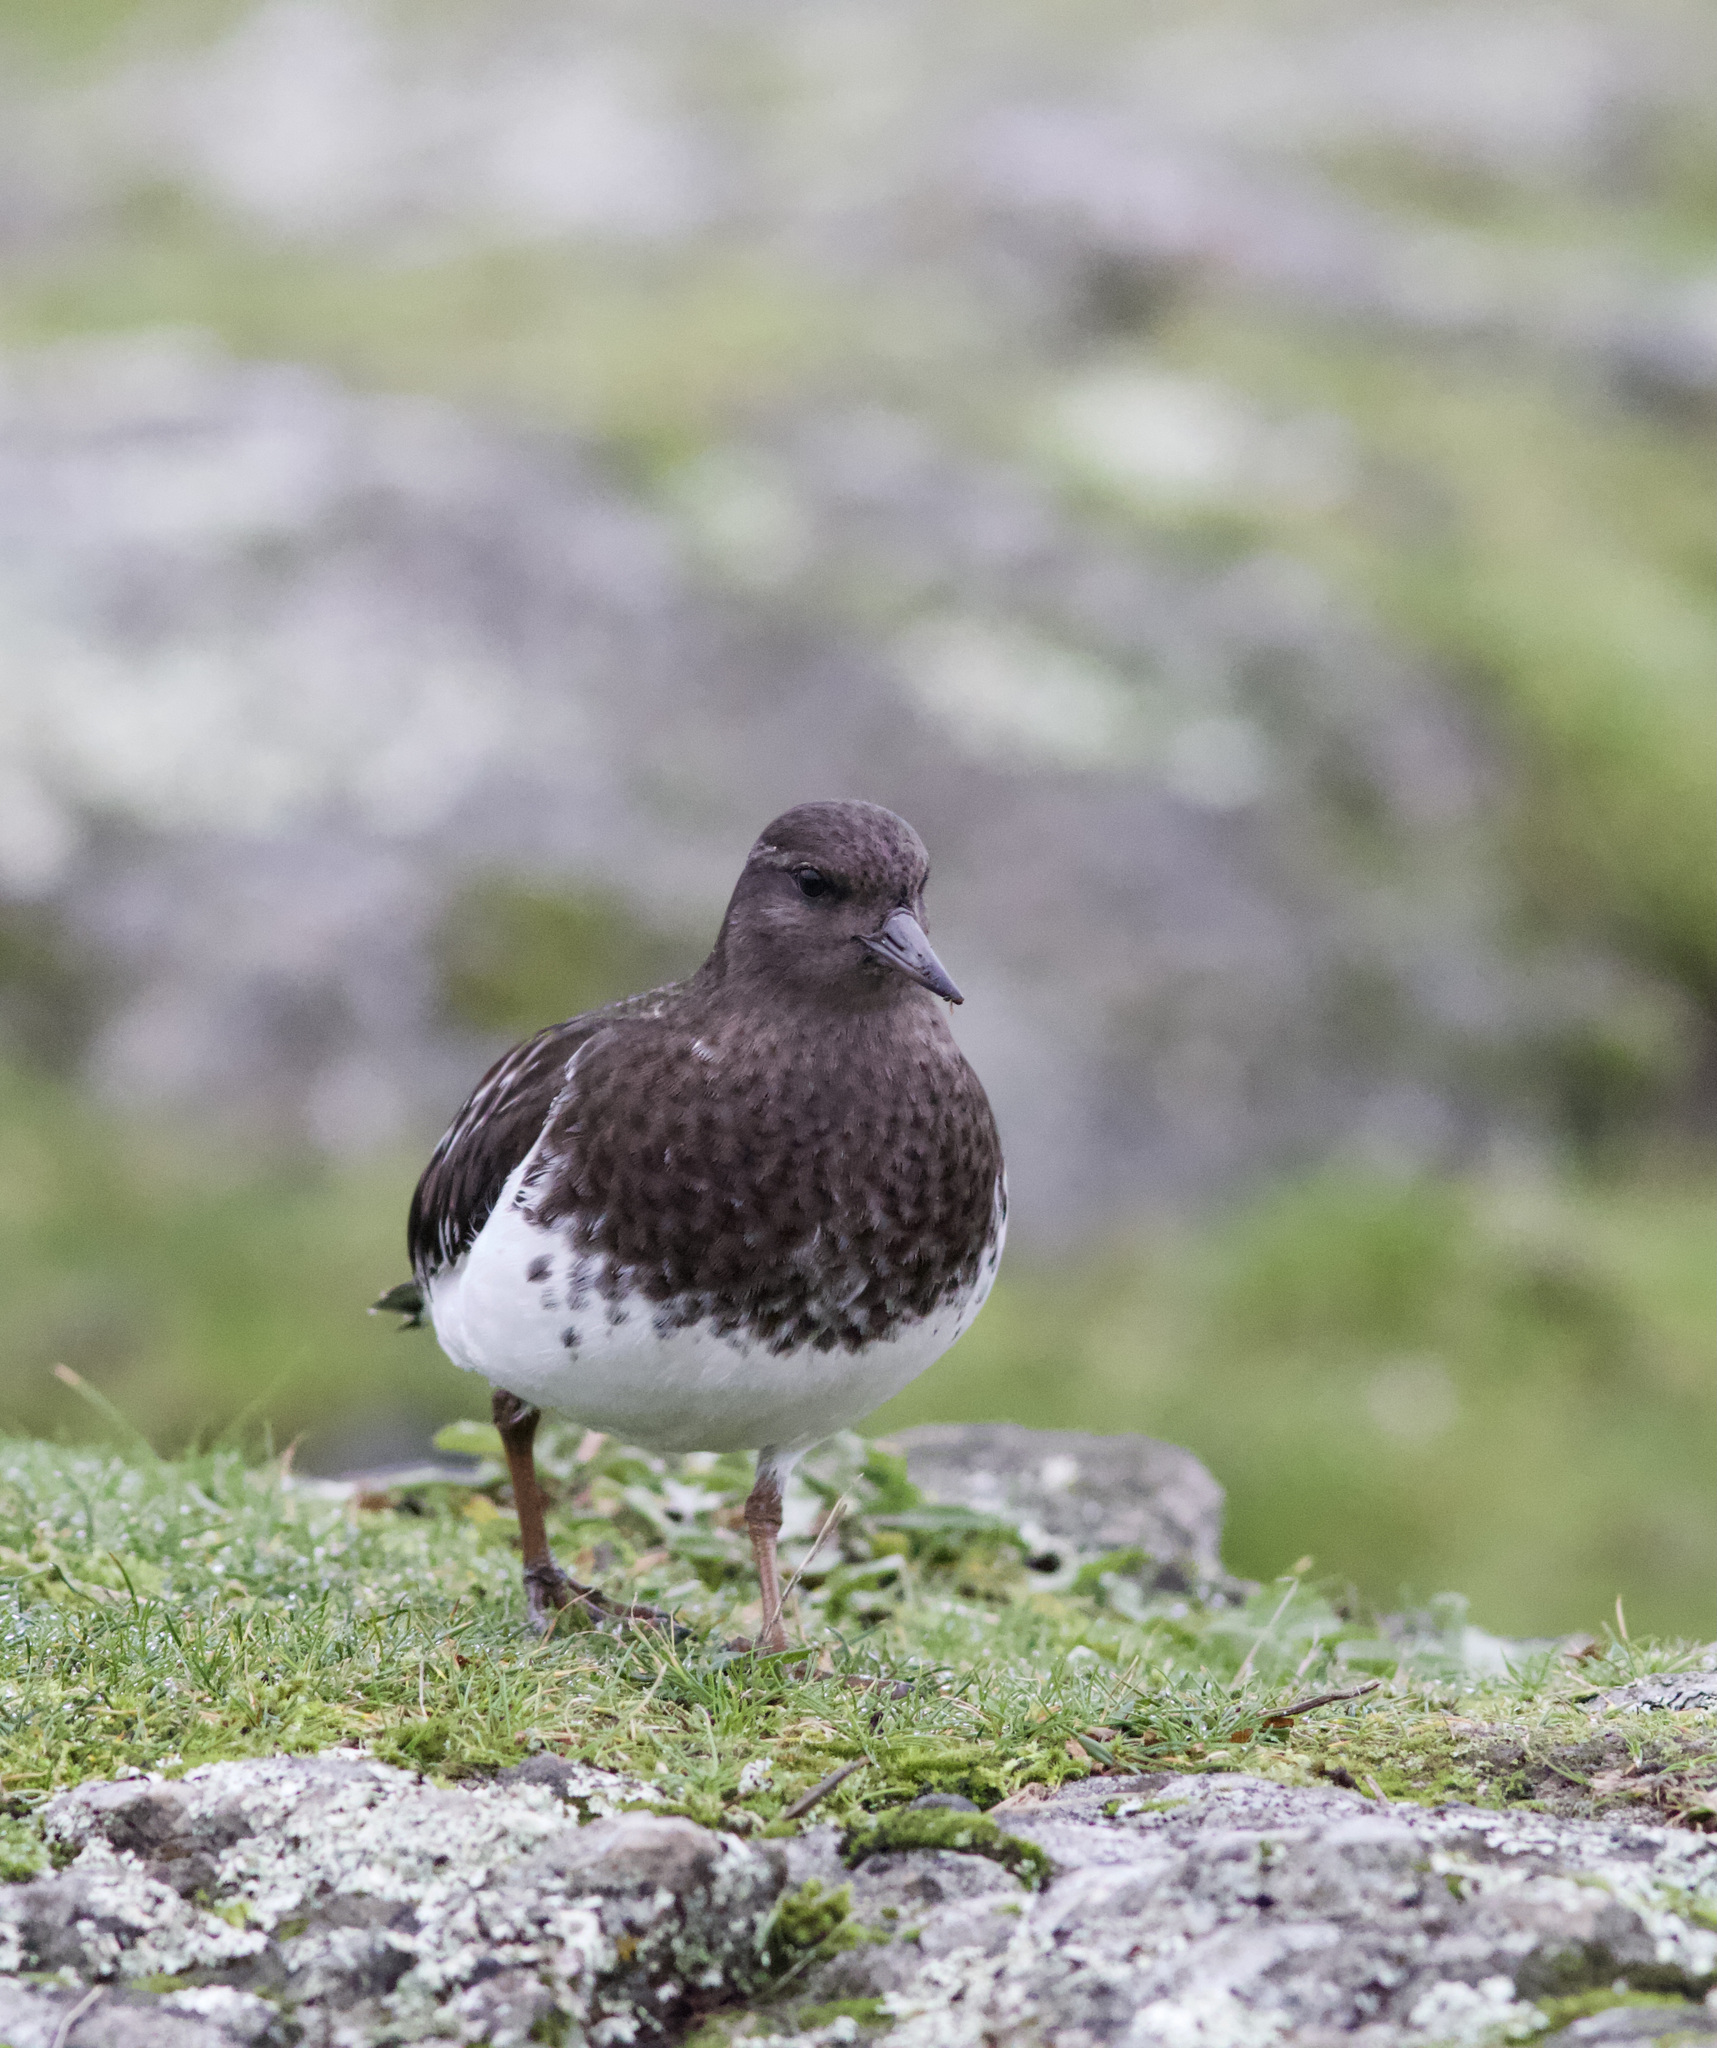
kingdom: Animalia
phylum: Chordata
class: Aves
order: Charadriiformes
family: Scolopacidae
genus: Arenaria
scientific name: Arenaria melanocephala
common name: Black turnstone
